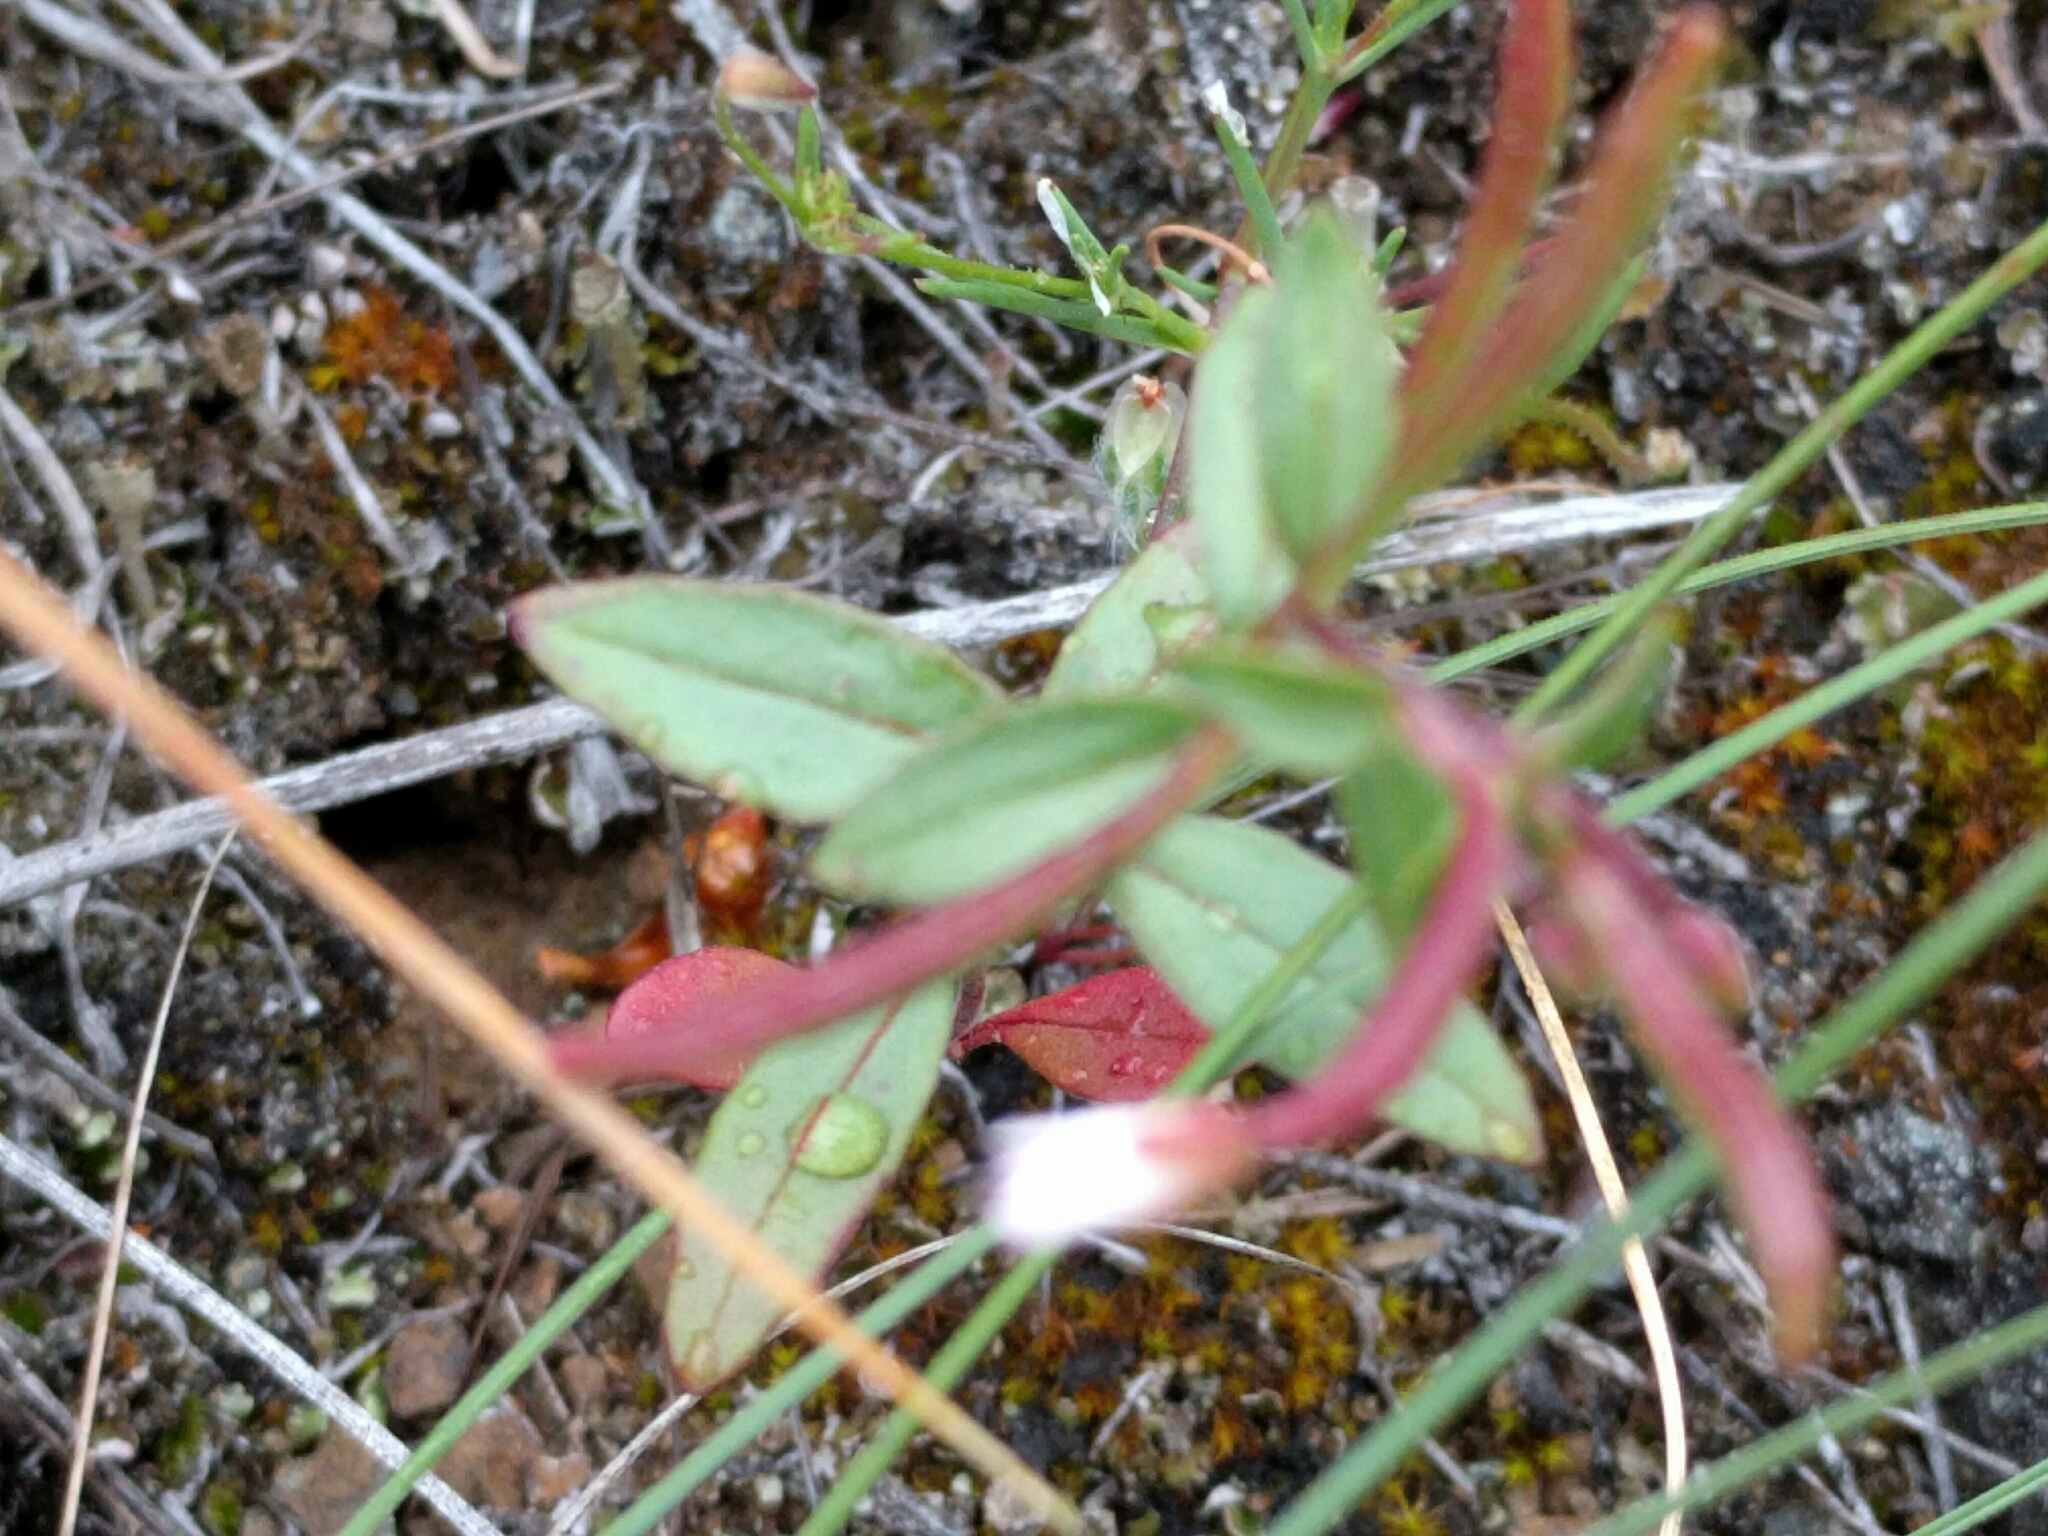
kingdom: Plantae
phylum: Tracheophyta
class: Magnoliopsida
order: Myrtales
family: Onagraceae
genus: Epilobium
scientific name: Epilobium minutum
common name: Chaparral willowherb
